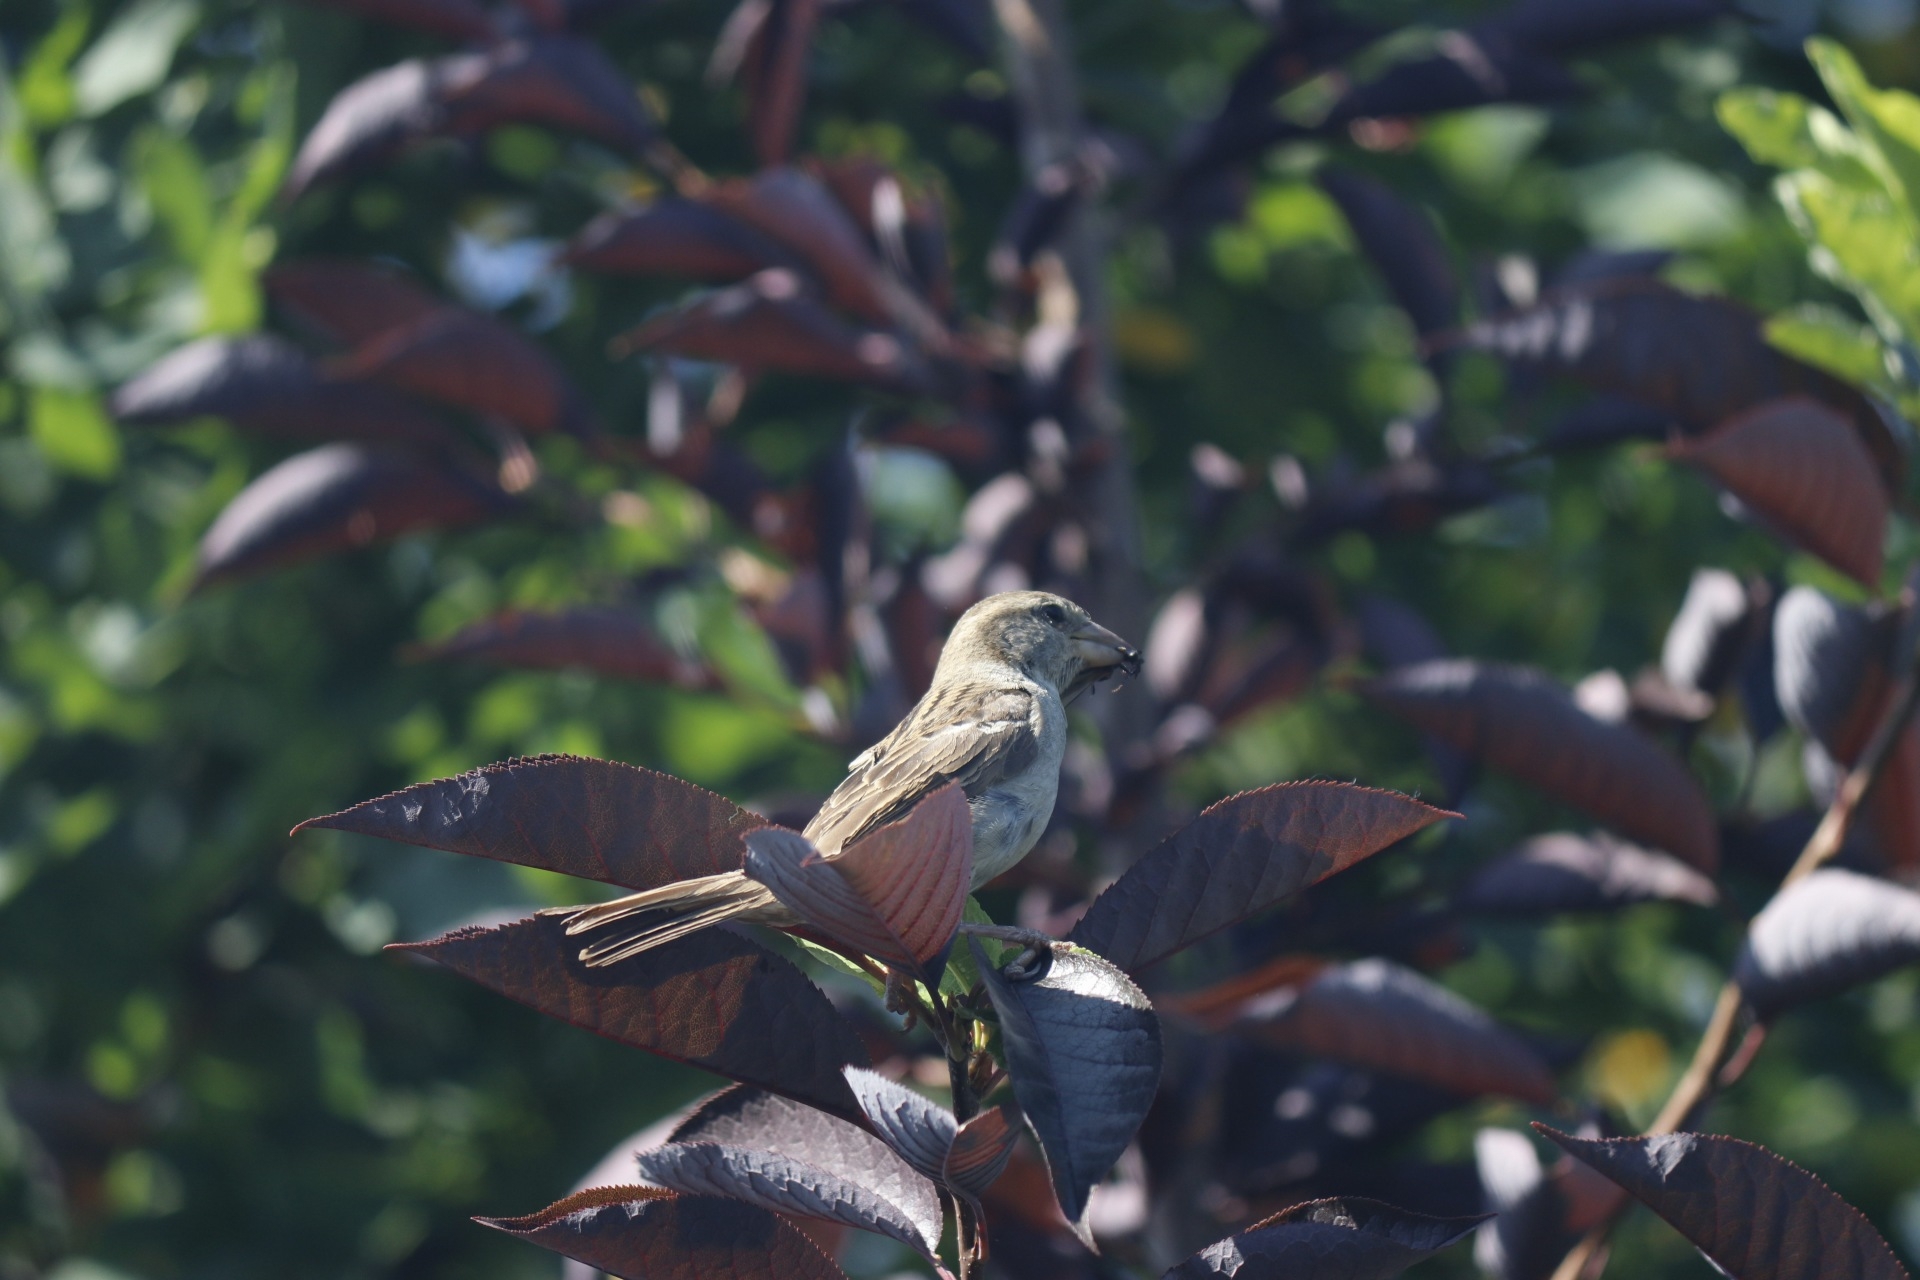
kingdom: Animalia
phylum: Chordata
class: Aves
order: Passeriformes
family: Passeridae
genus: Passer
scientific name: Passer domesticus
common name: House sparrow
